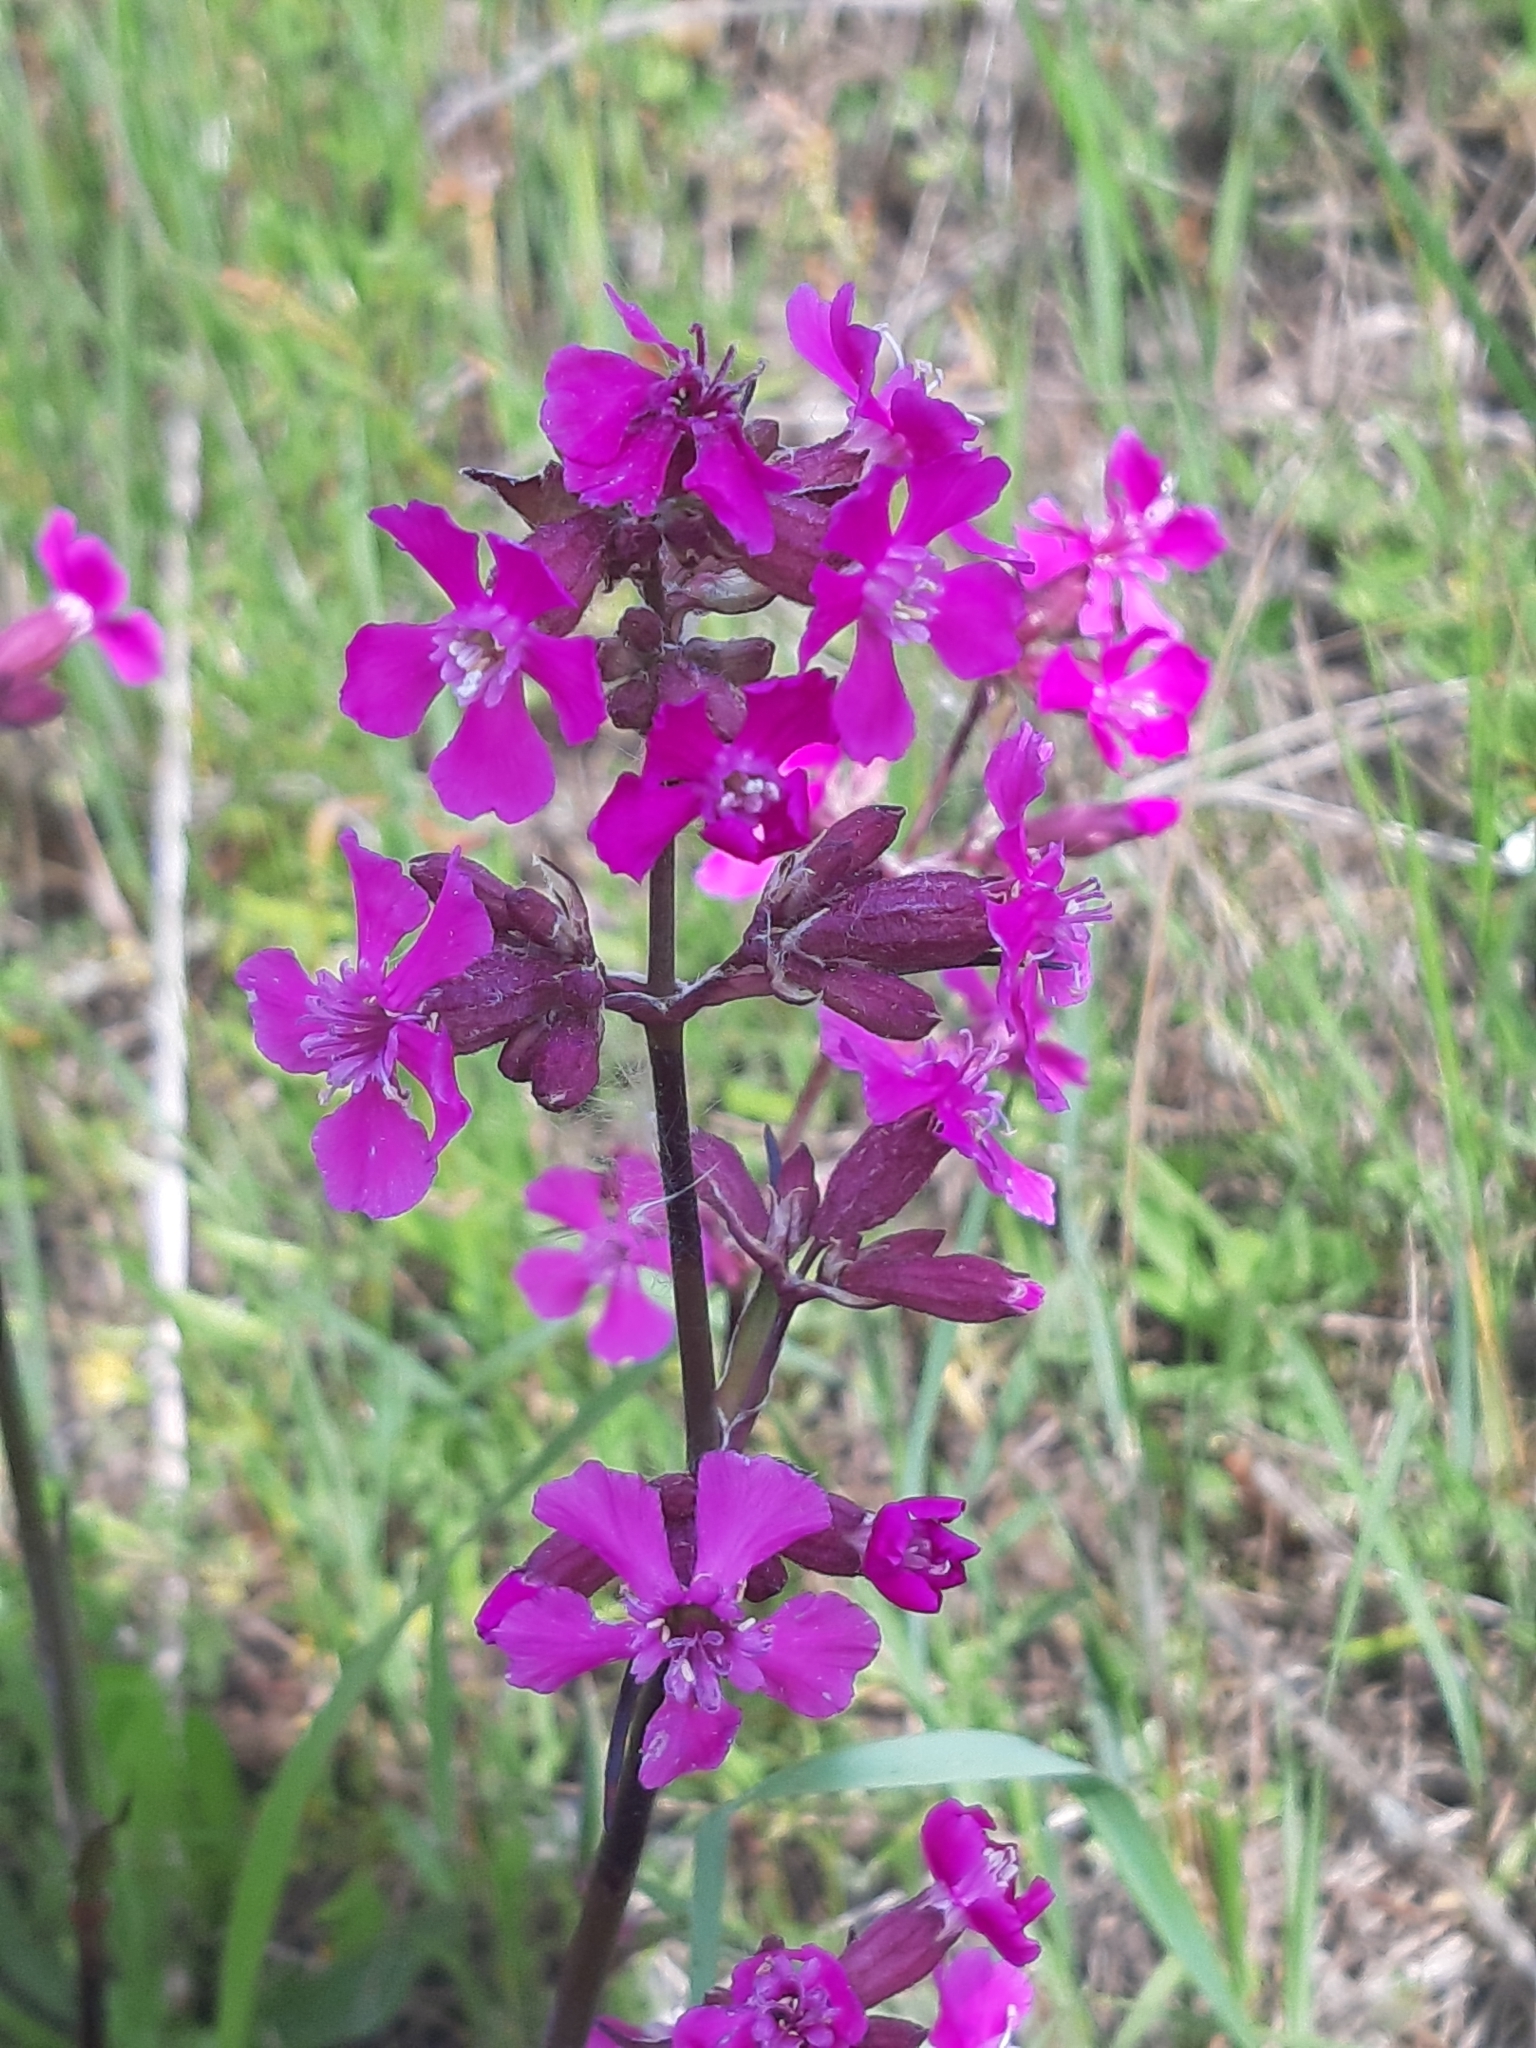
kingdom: Plantae
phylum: Tracheophyta
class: Magnoliopsida
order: Caryophyllales
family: Caryophyllaceae
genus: Viscaria
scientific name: Viscaria vulgaris
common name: Clammy campion
